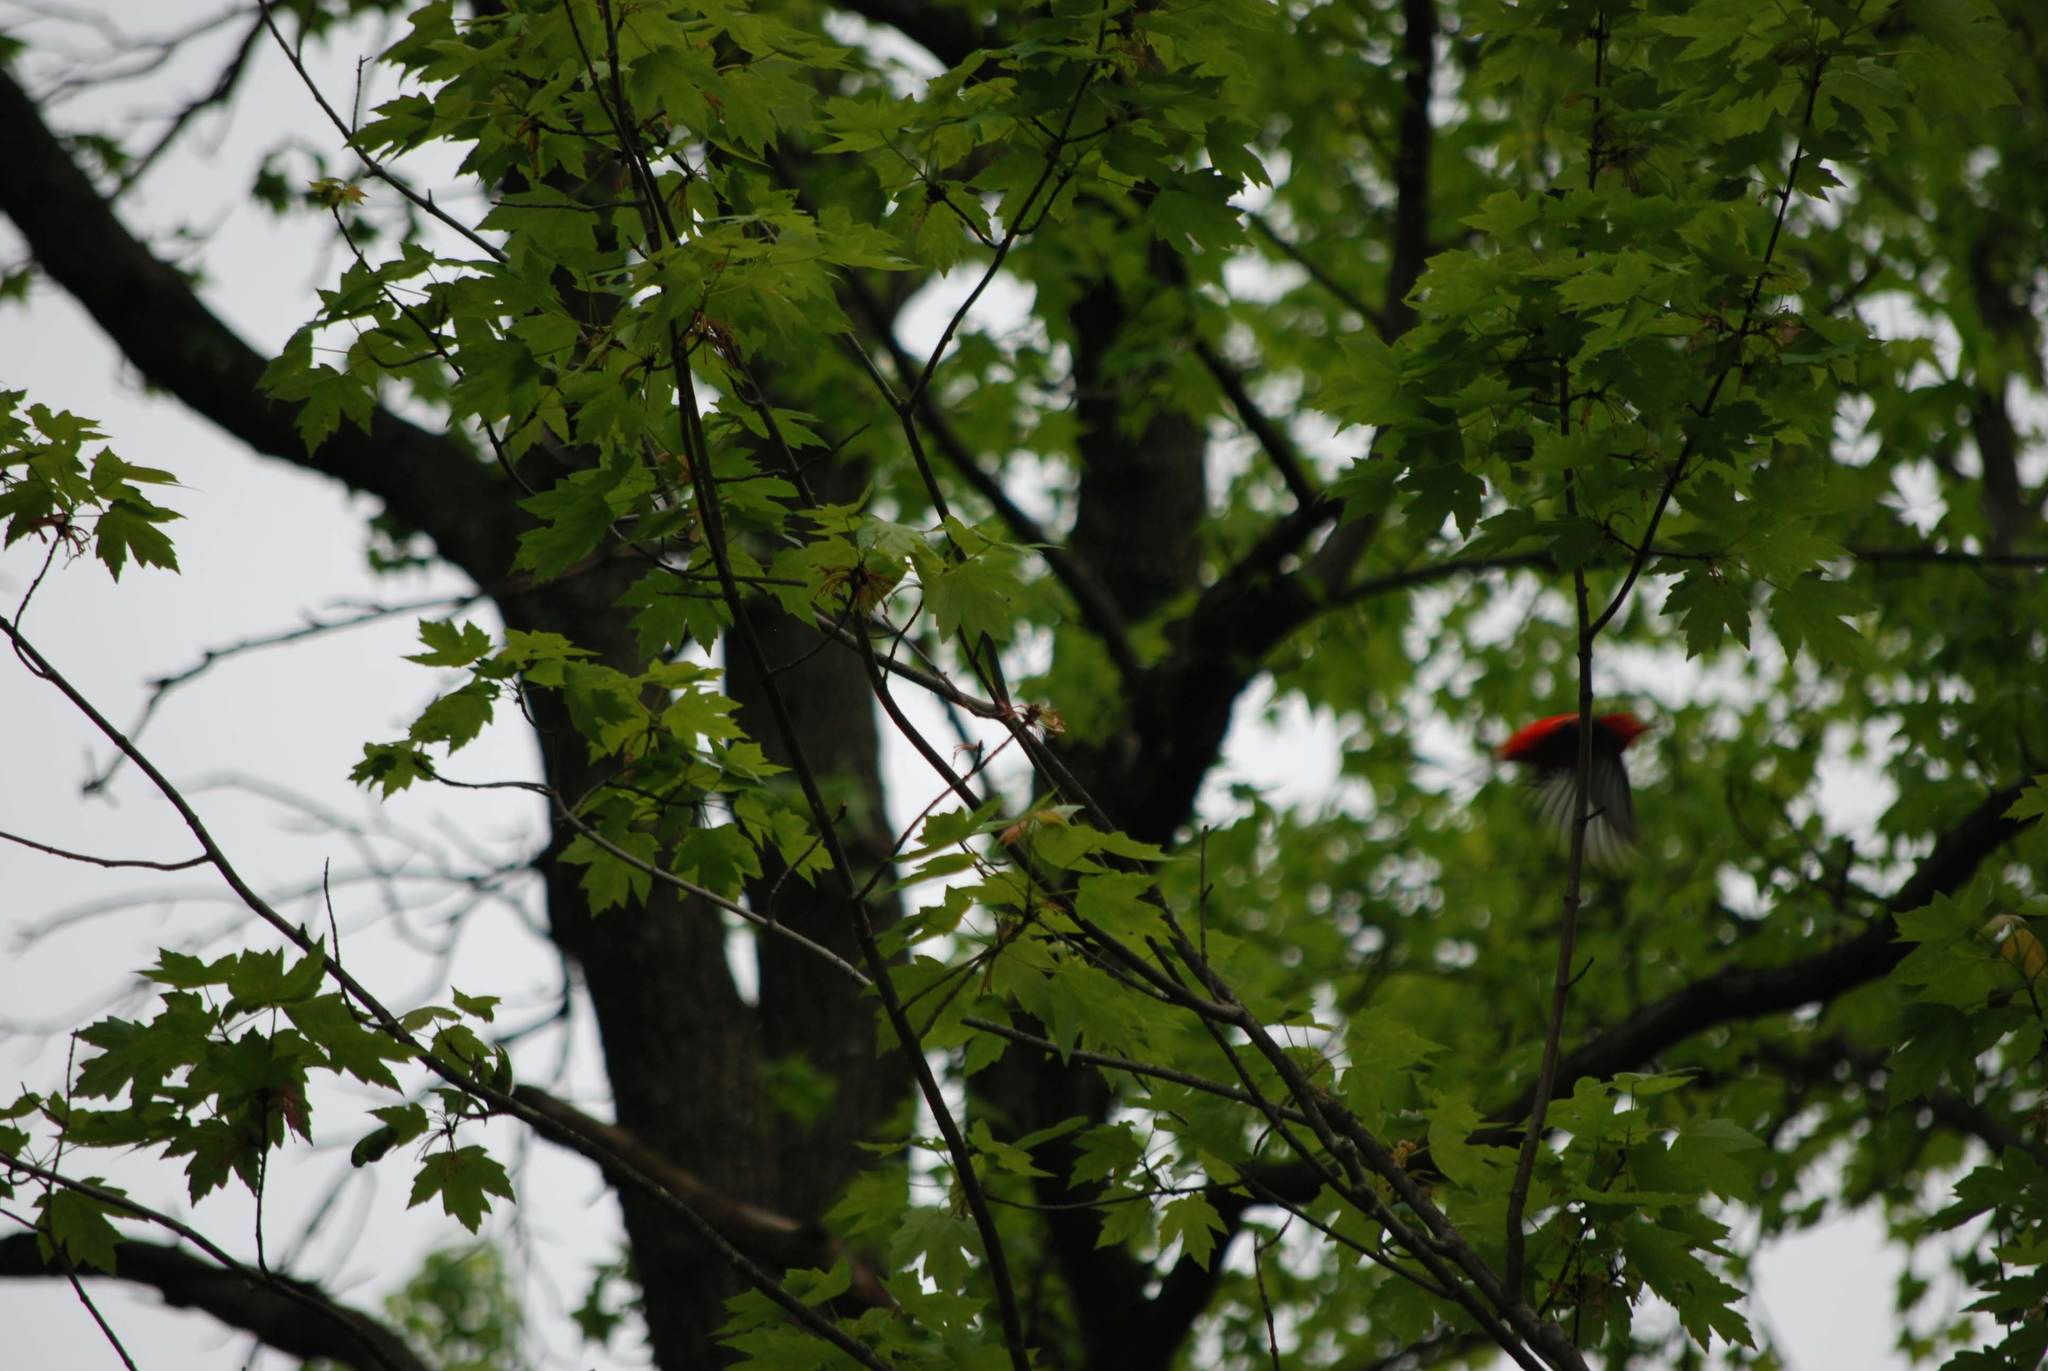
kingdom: Animalia
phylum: Chordata
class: Aves
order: Passeriformes
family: Cardinalidae
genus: Piranga
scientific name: Piranga olivacea
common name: Scarlet tanager
